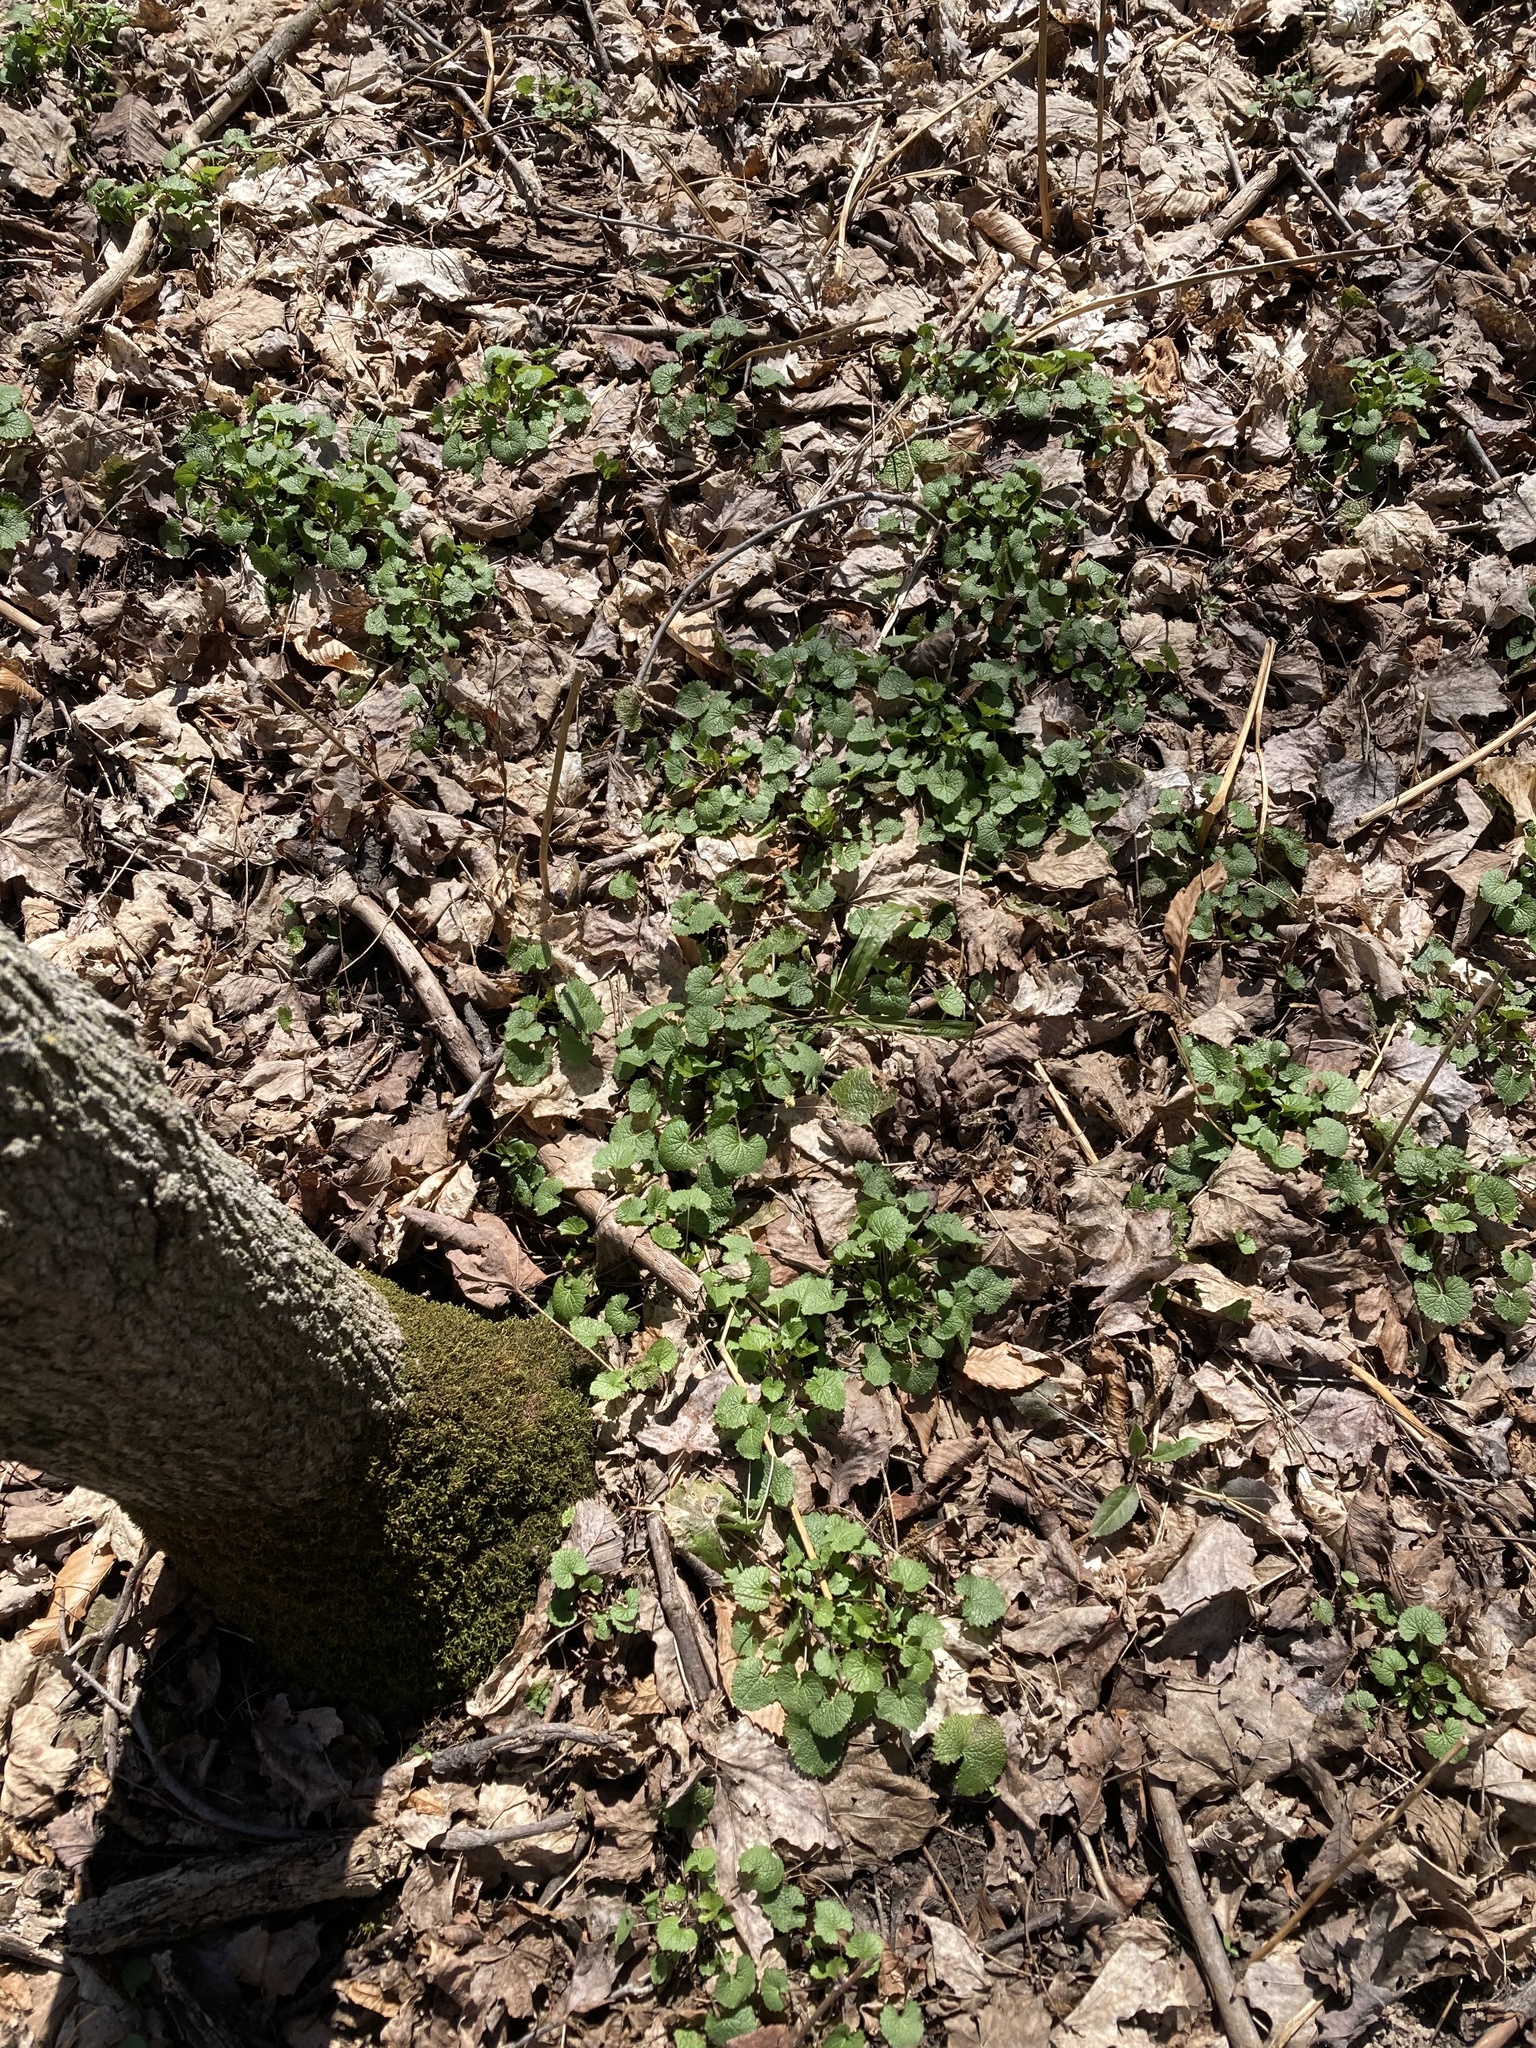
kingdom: Plantae
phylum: Tracheophyta
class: Magnoliopsida
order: Brassicales
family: Brassicaceae
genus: Alliaria
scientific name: Alliaria petiolata
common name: Garlic mustard
